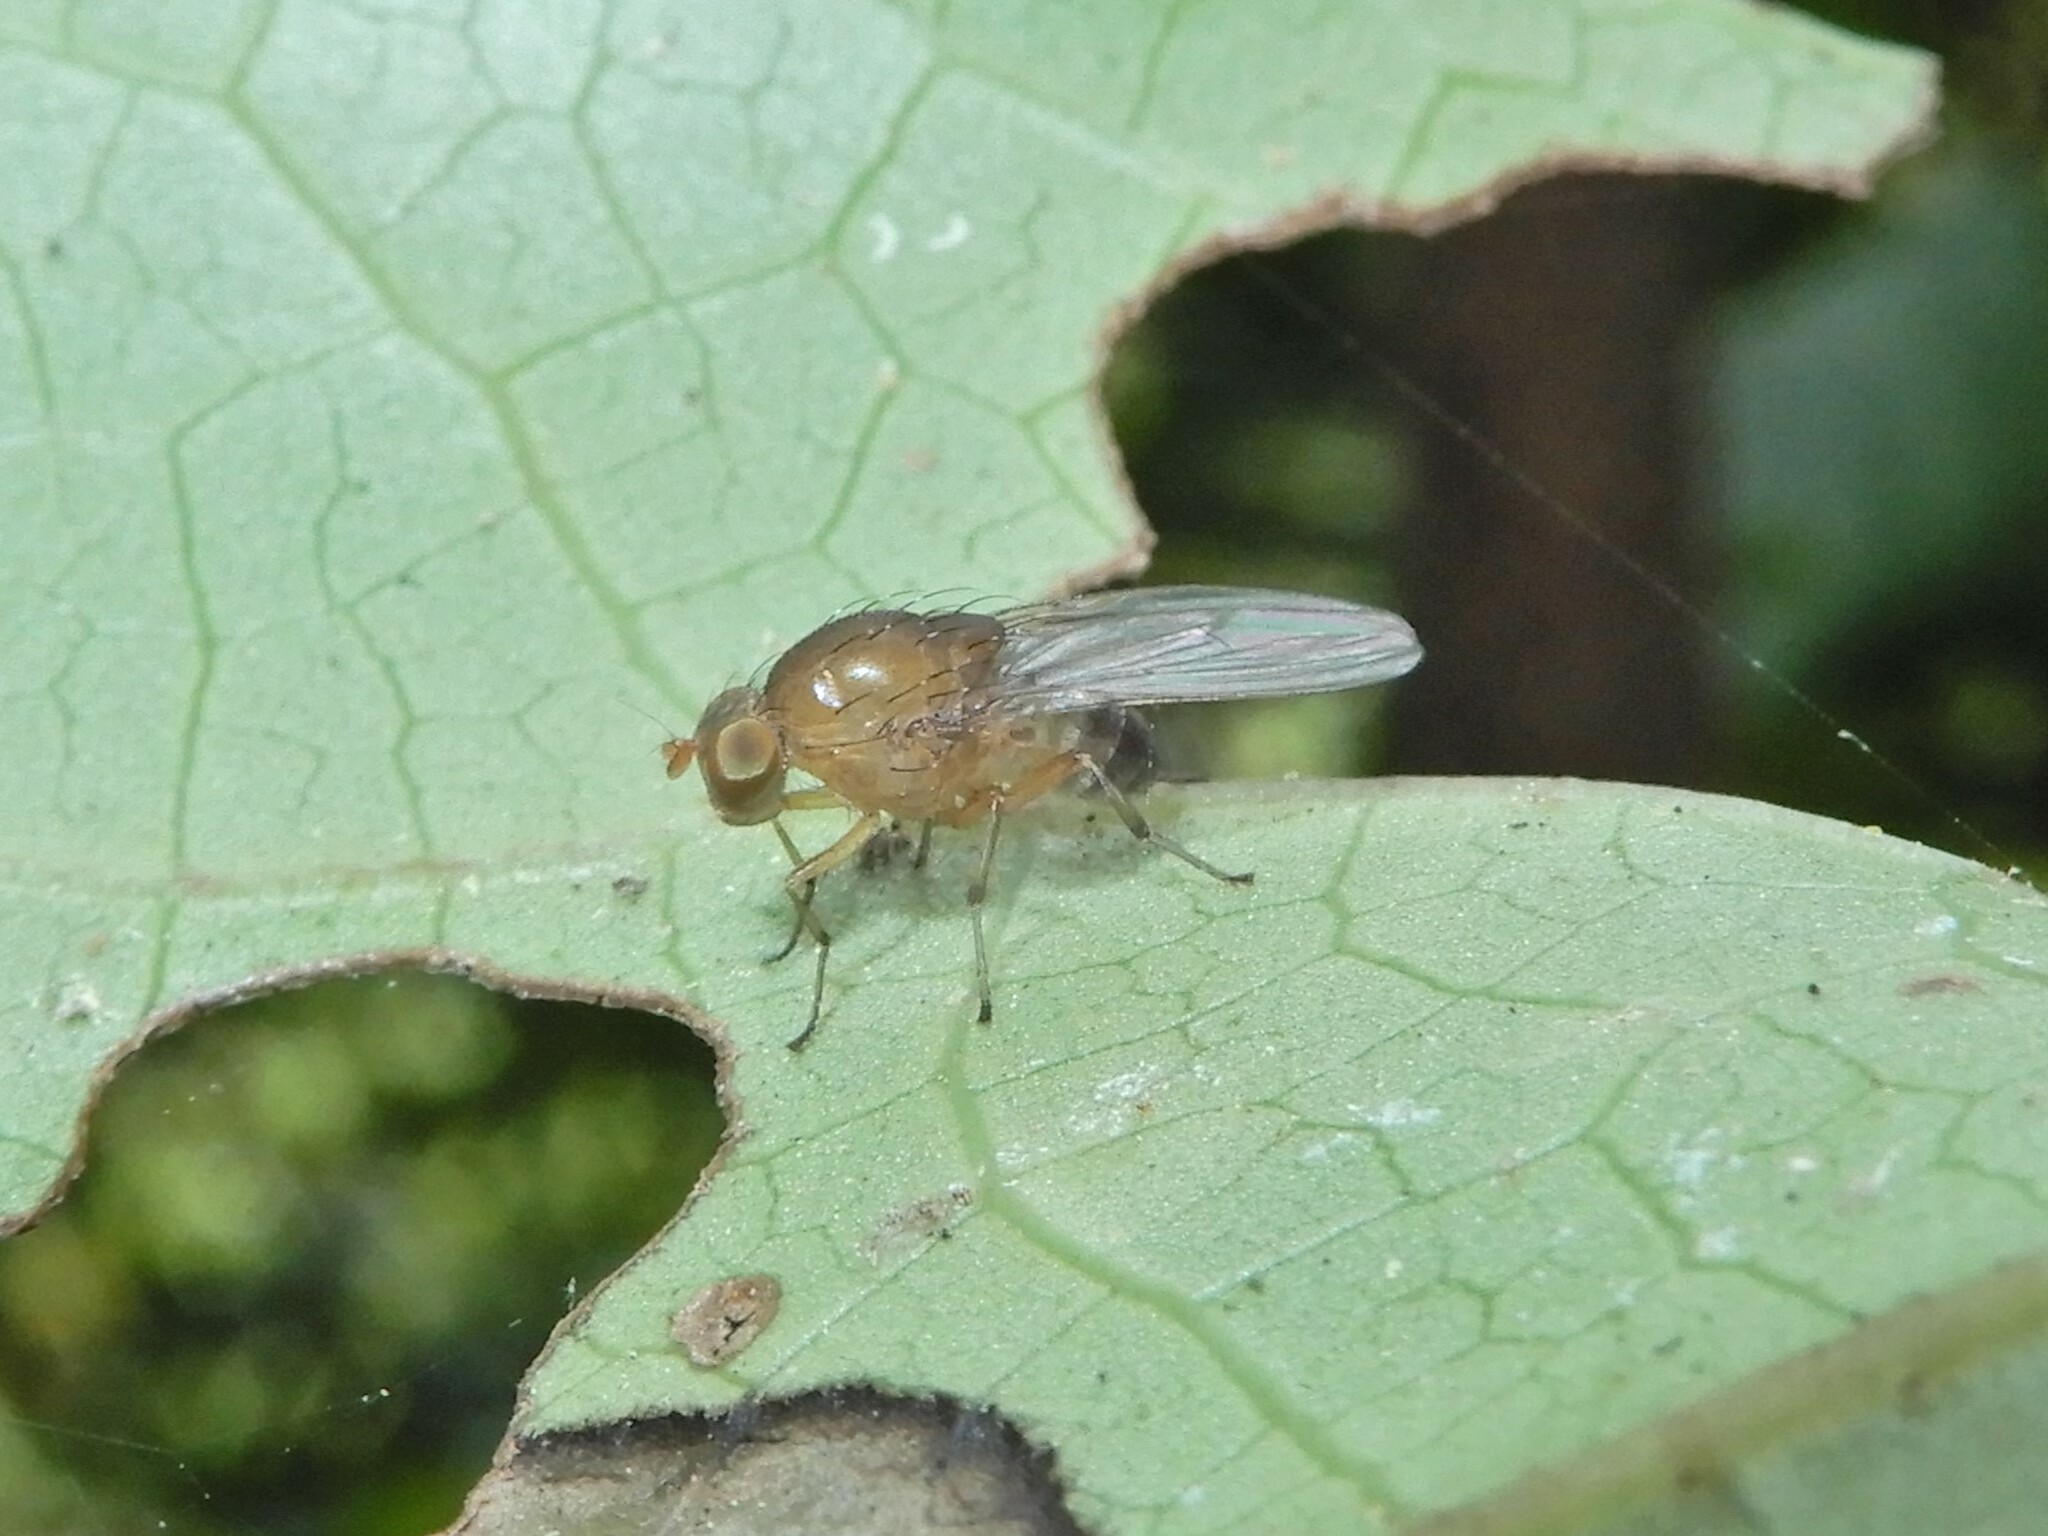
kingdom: Animalia
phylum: Arthropoda
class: Insecta
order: Diptera
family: Lauxaniidae
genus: Sapromyza
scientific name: Sapromyza simillima
